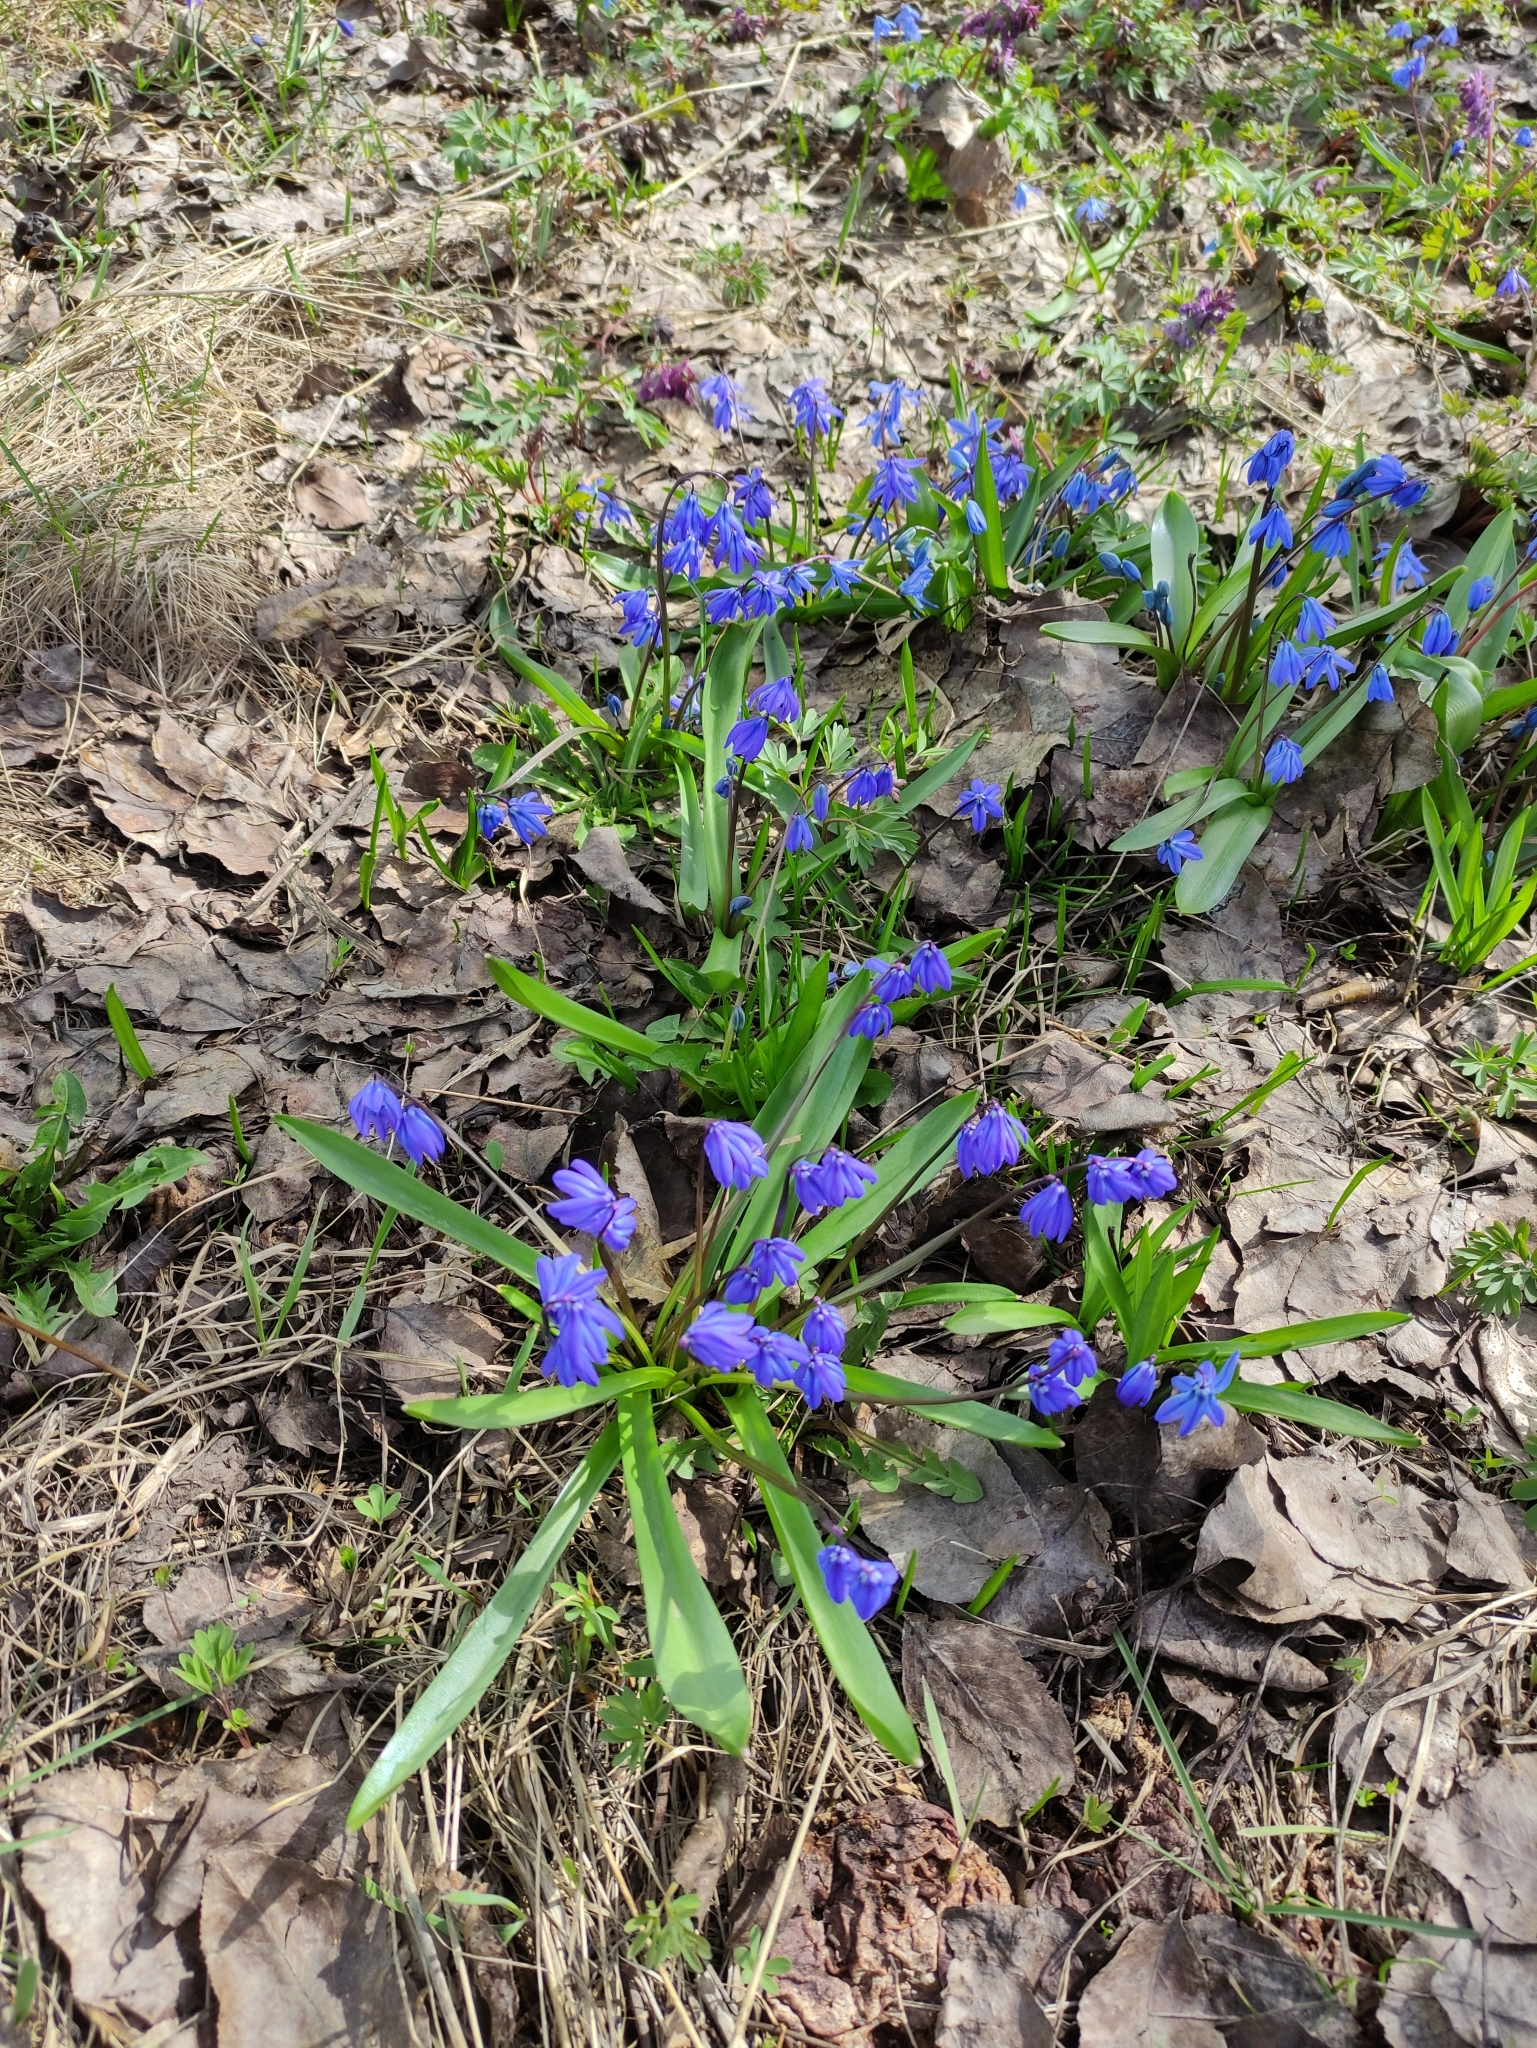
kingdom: Plantae
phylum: Tracheophyta
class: Liliopsida
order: Asparagales
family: Asparagaceae
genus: Scilla
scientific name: Scilla siberica
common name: Siberian squill
